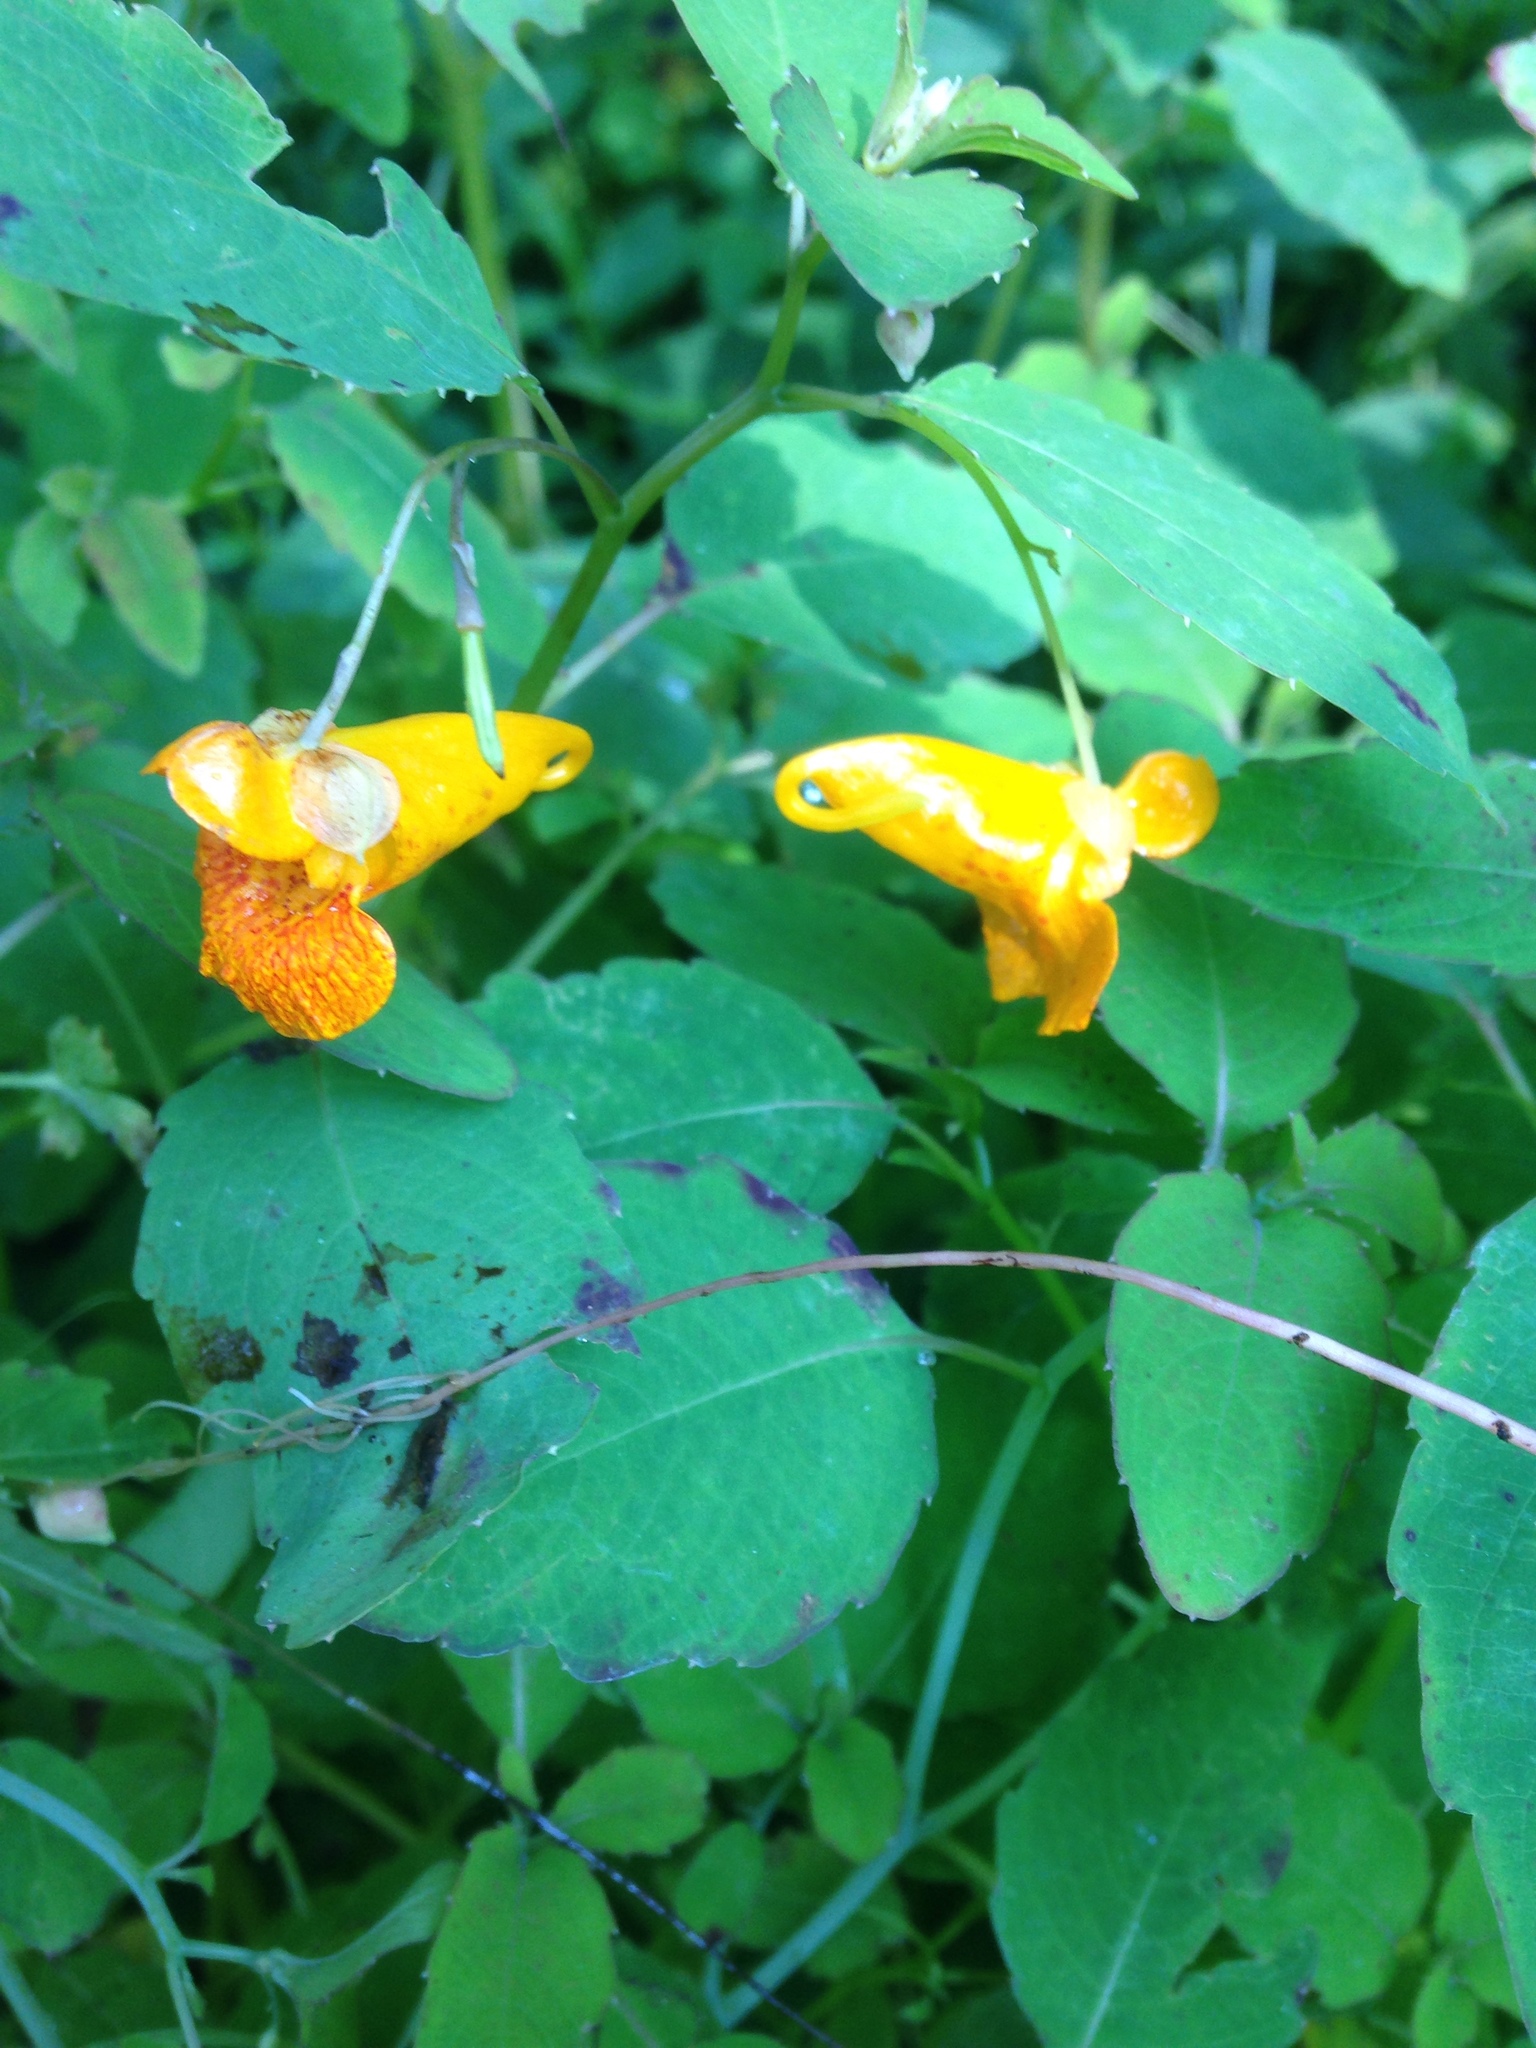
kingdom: Plantae
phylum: Tracheophyta
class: Magnoliopsida
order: Ericales
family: Balsaminaceae
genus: Impatiens
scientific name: Impatiens capensis
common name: Orange balsam
